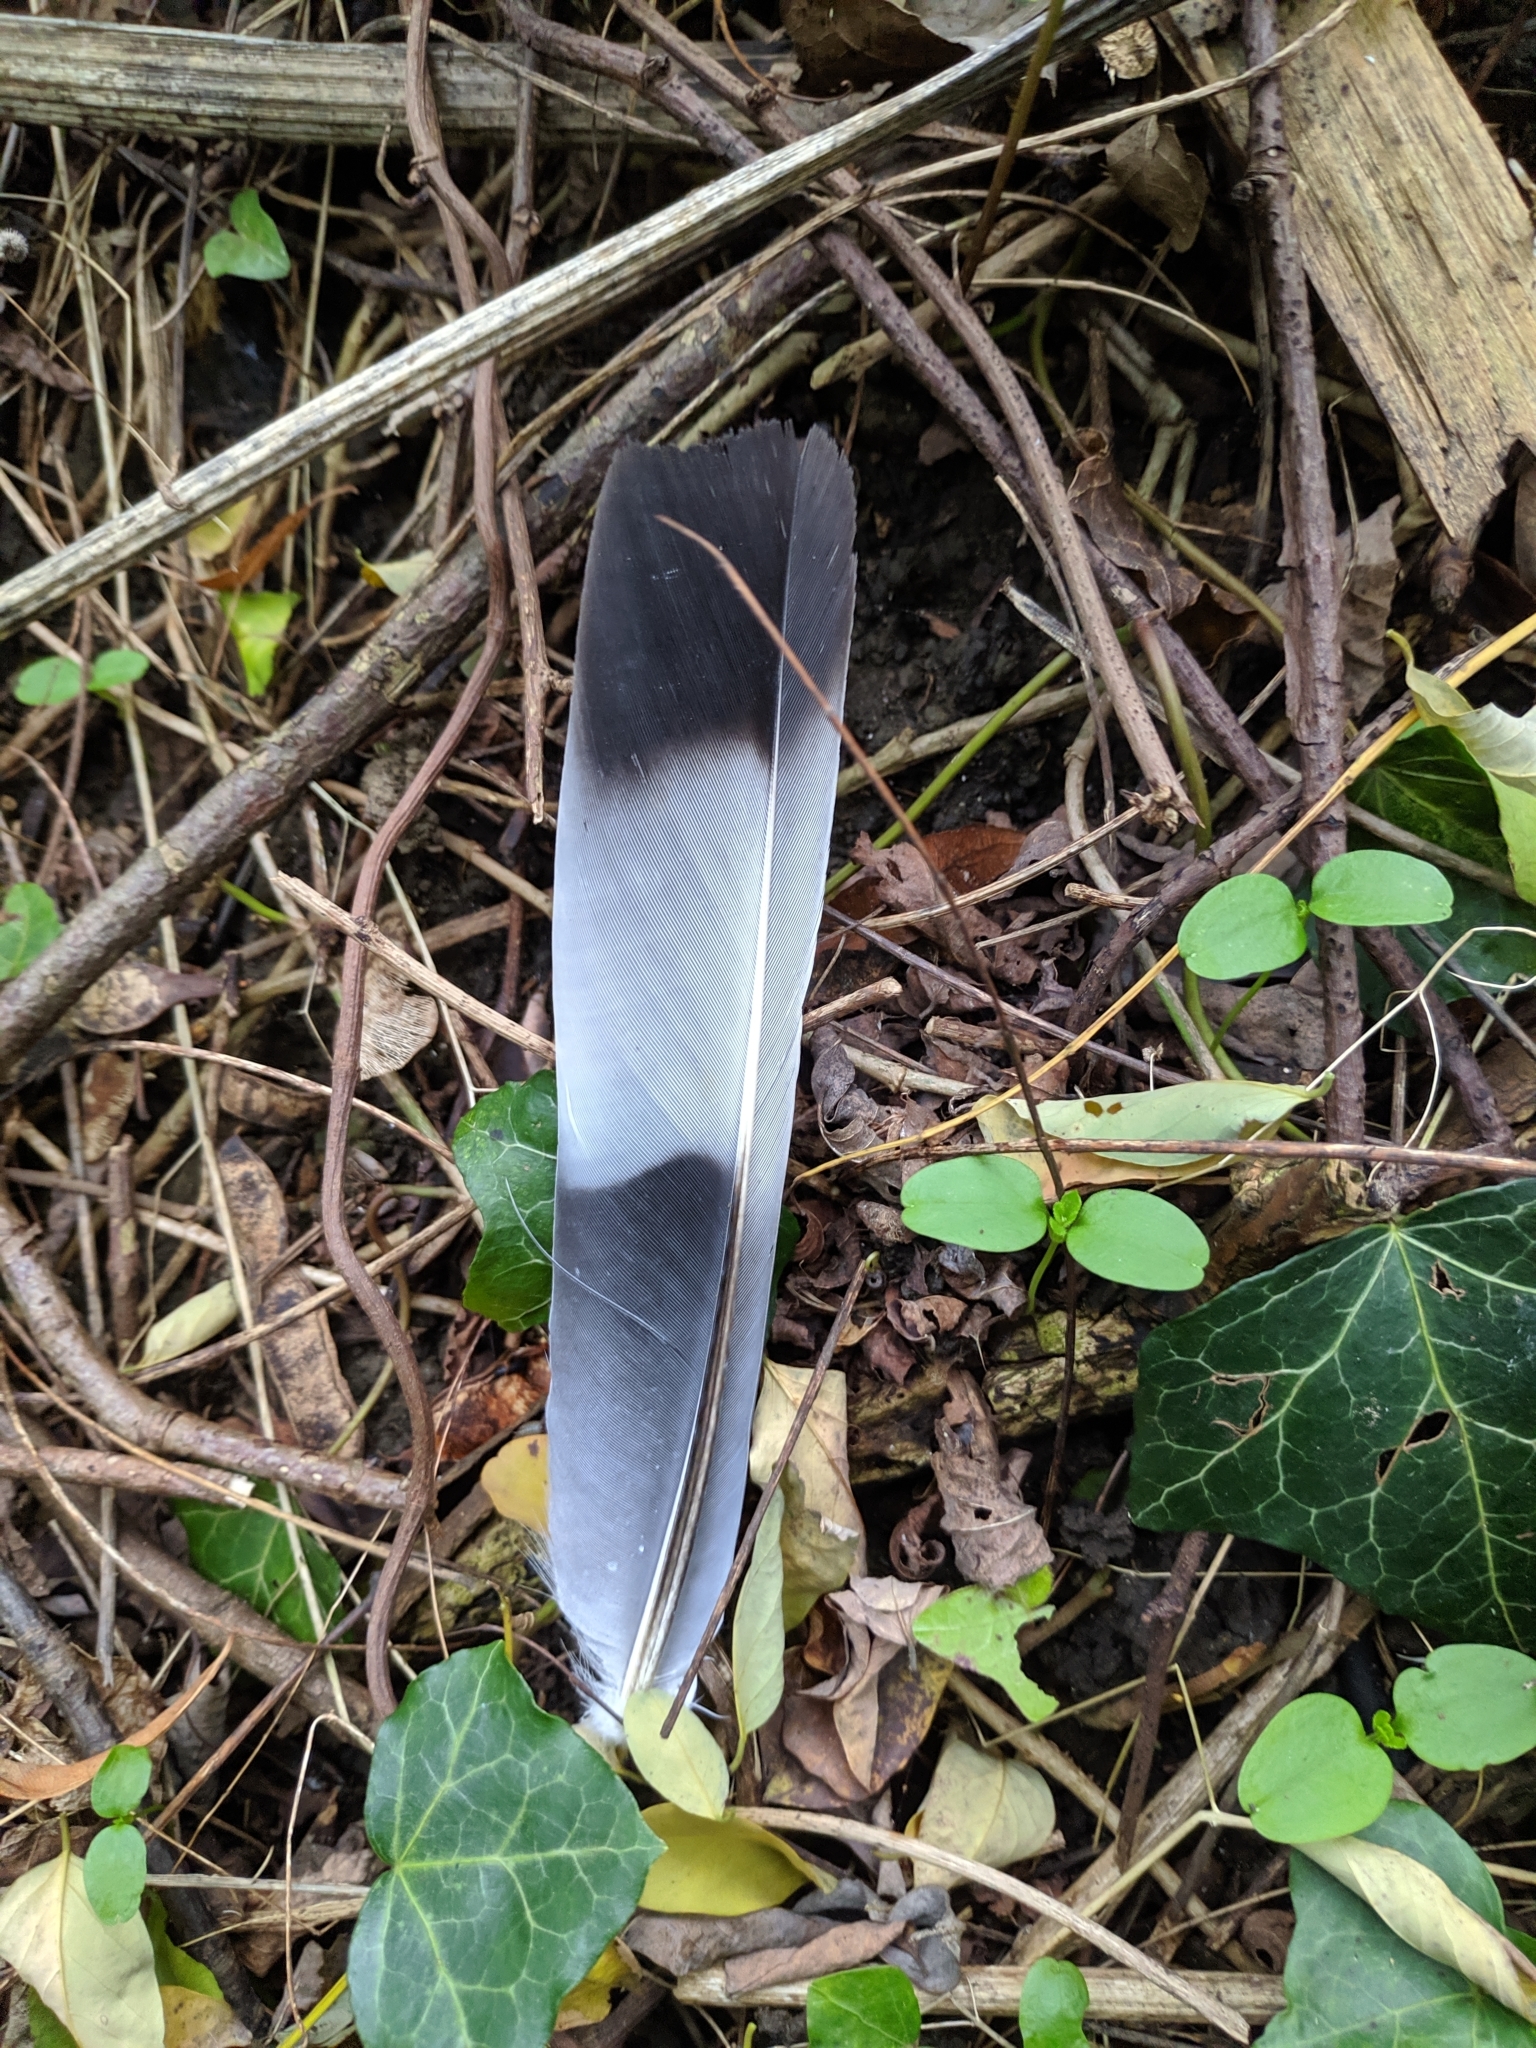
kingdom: Animalia
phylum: Chordata
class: Aves
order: Columbiformes
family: Columbidae
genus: Columba
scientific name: Columba palumbus
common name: Common wood pigeon
